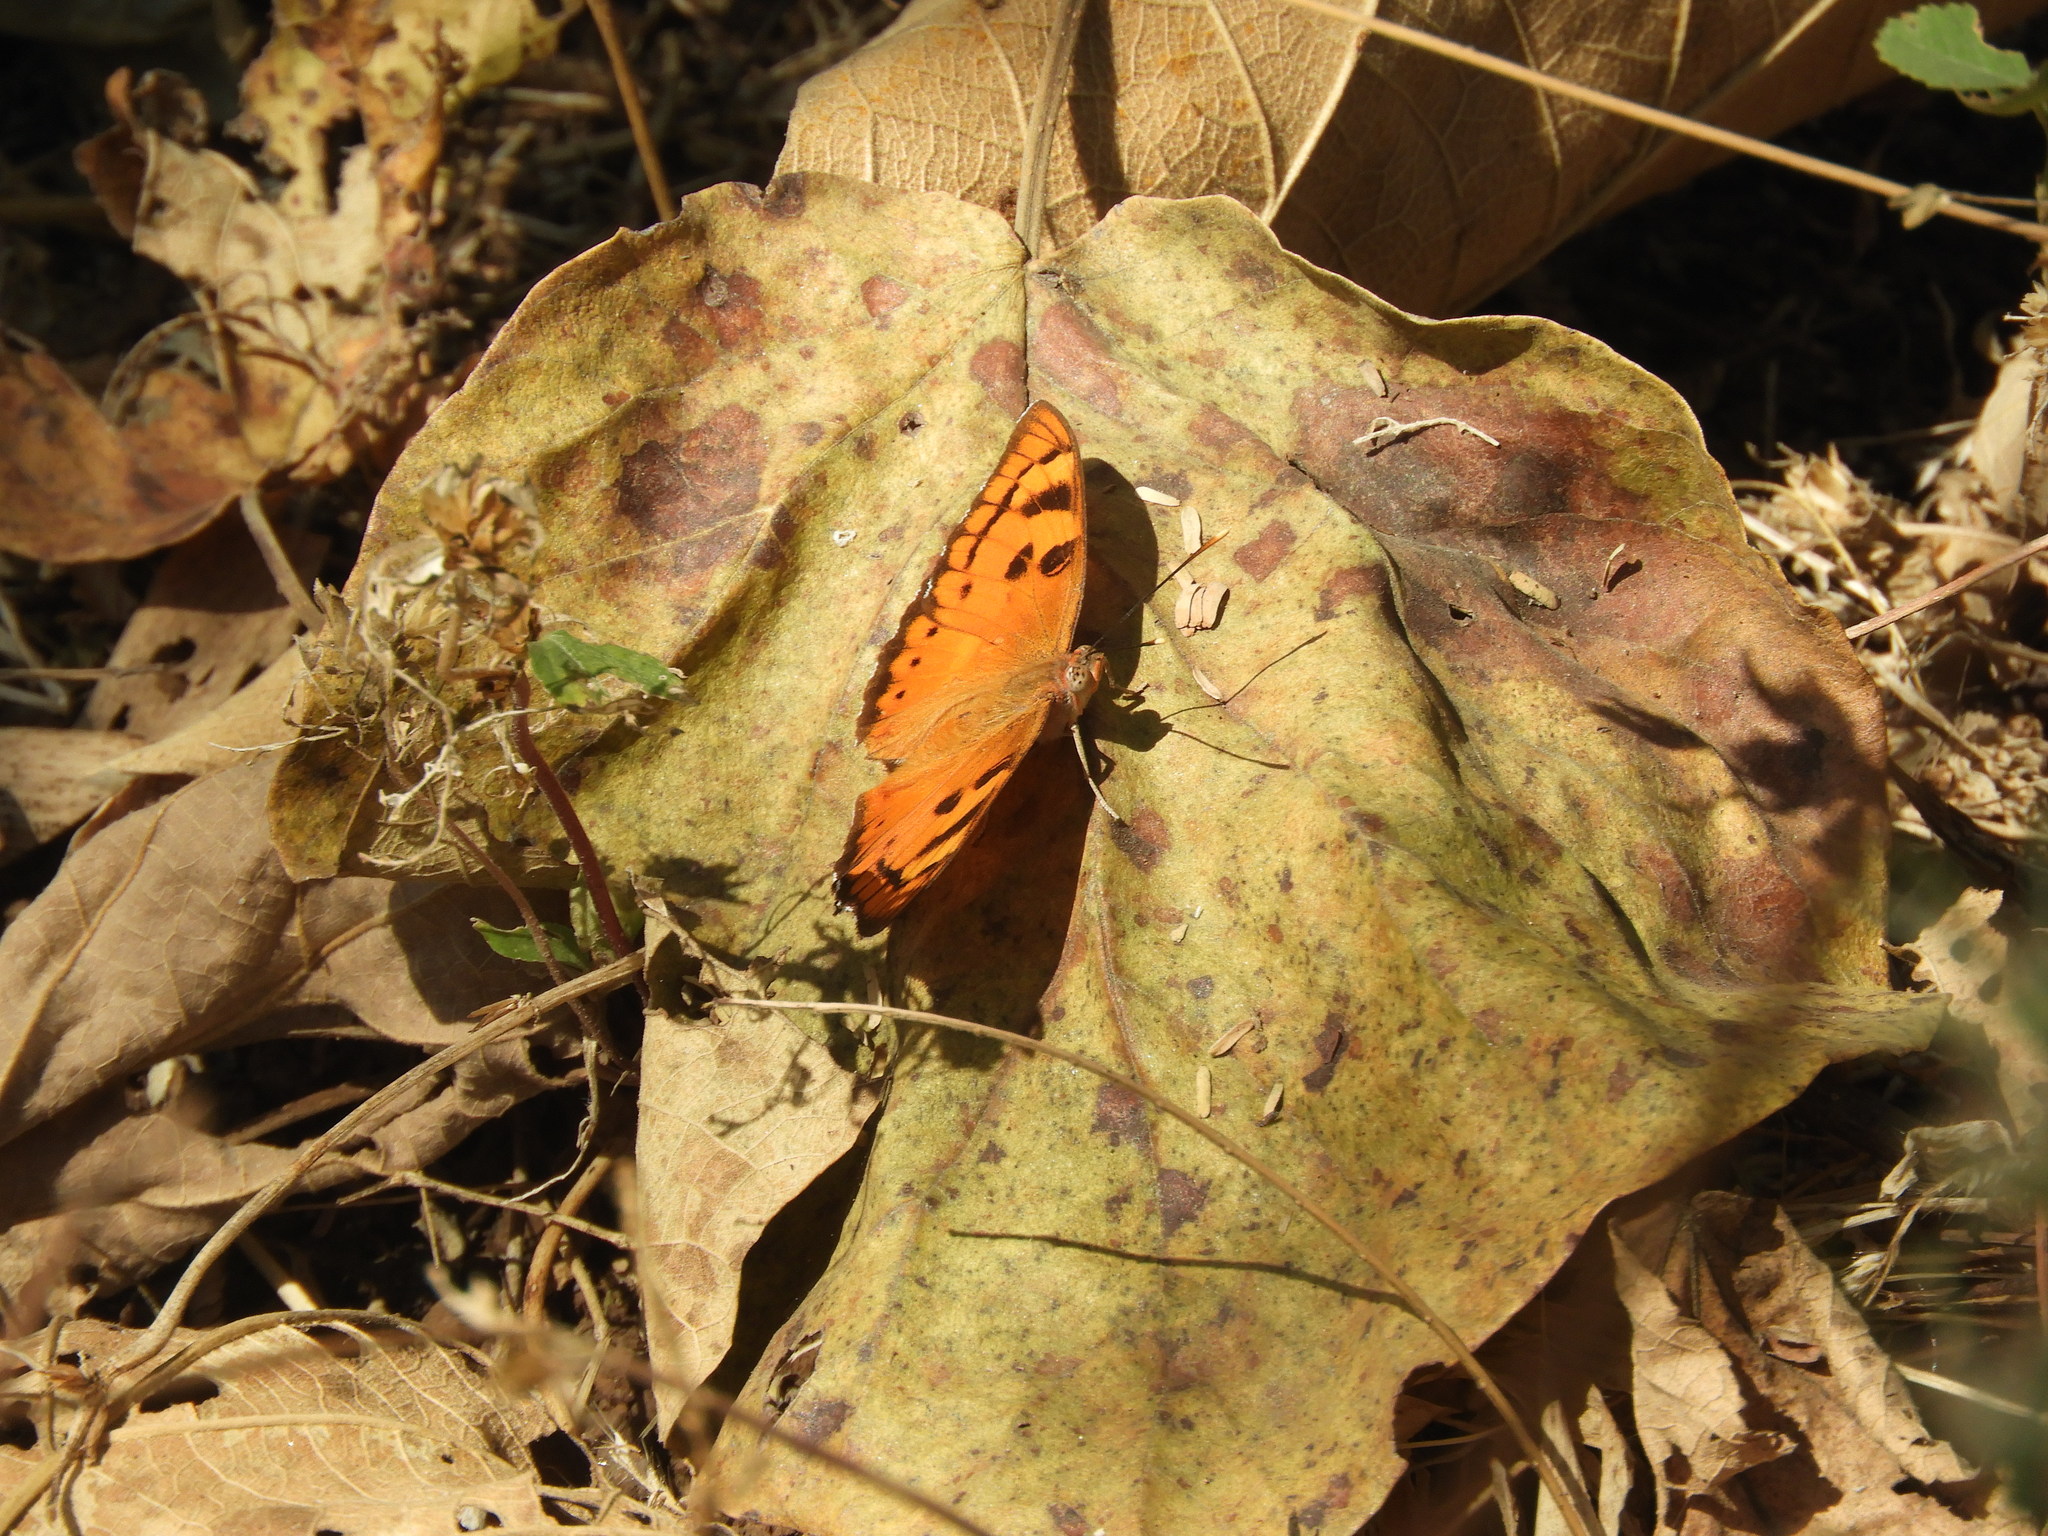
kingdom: Animalia
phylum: Arthropoda
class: Insecta
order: Lepidoptera
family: Nymphalidae
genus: Euthalia
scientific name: Euthalia nais
